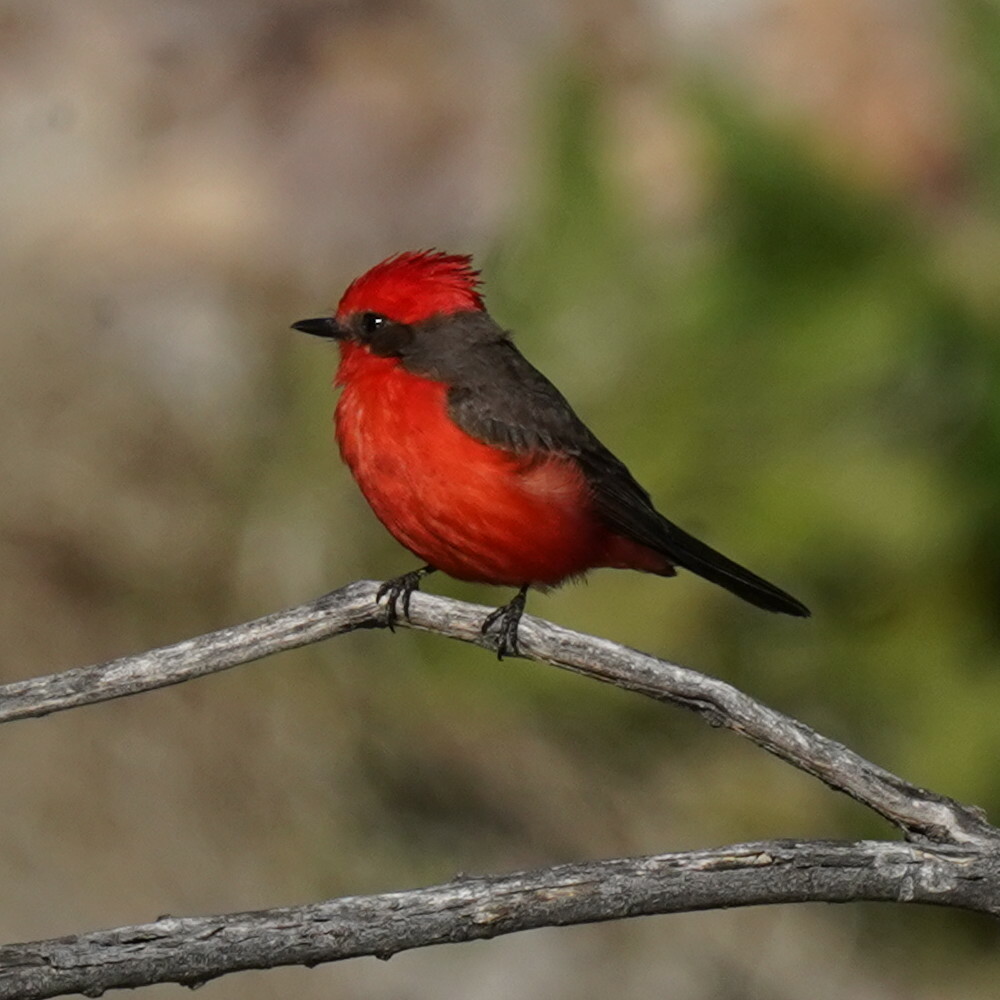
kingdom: Animalia
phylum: Chordata
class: Aves
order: Passeriformes
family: Tyrannidae
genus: Pyrocephalus
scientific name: Pyrocephalus rubinus
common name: Vermilion flycatcher
